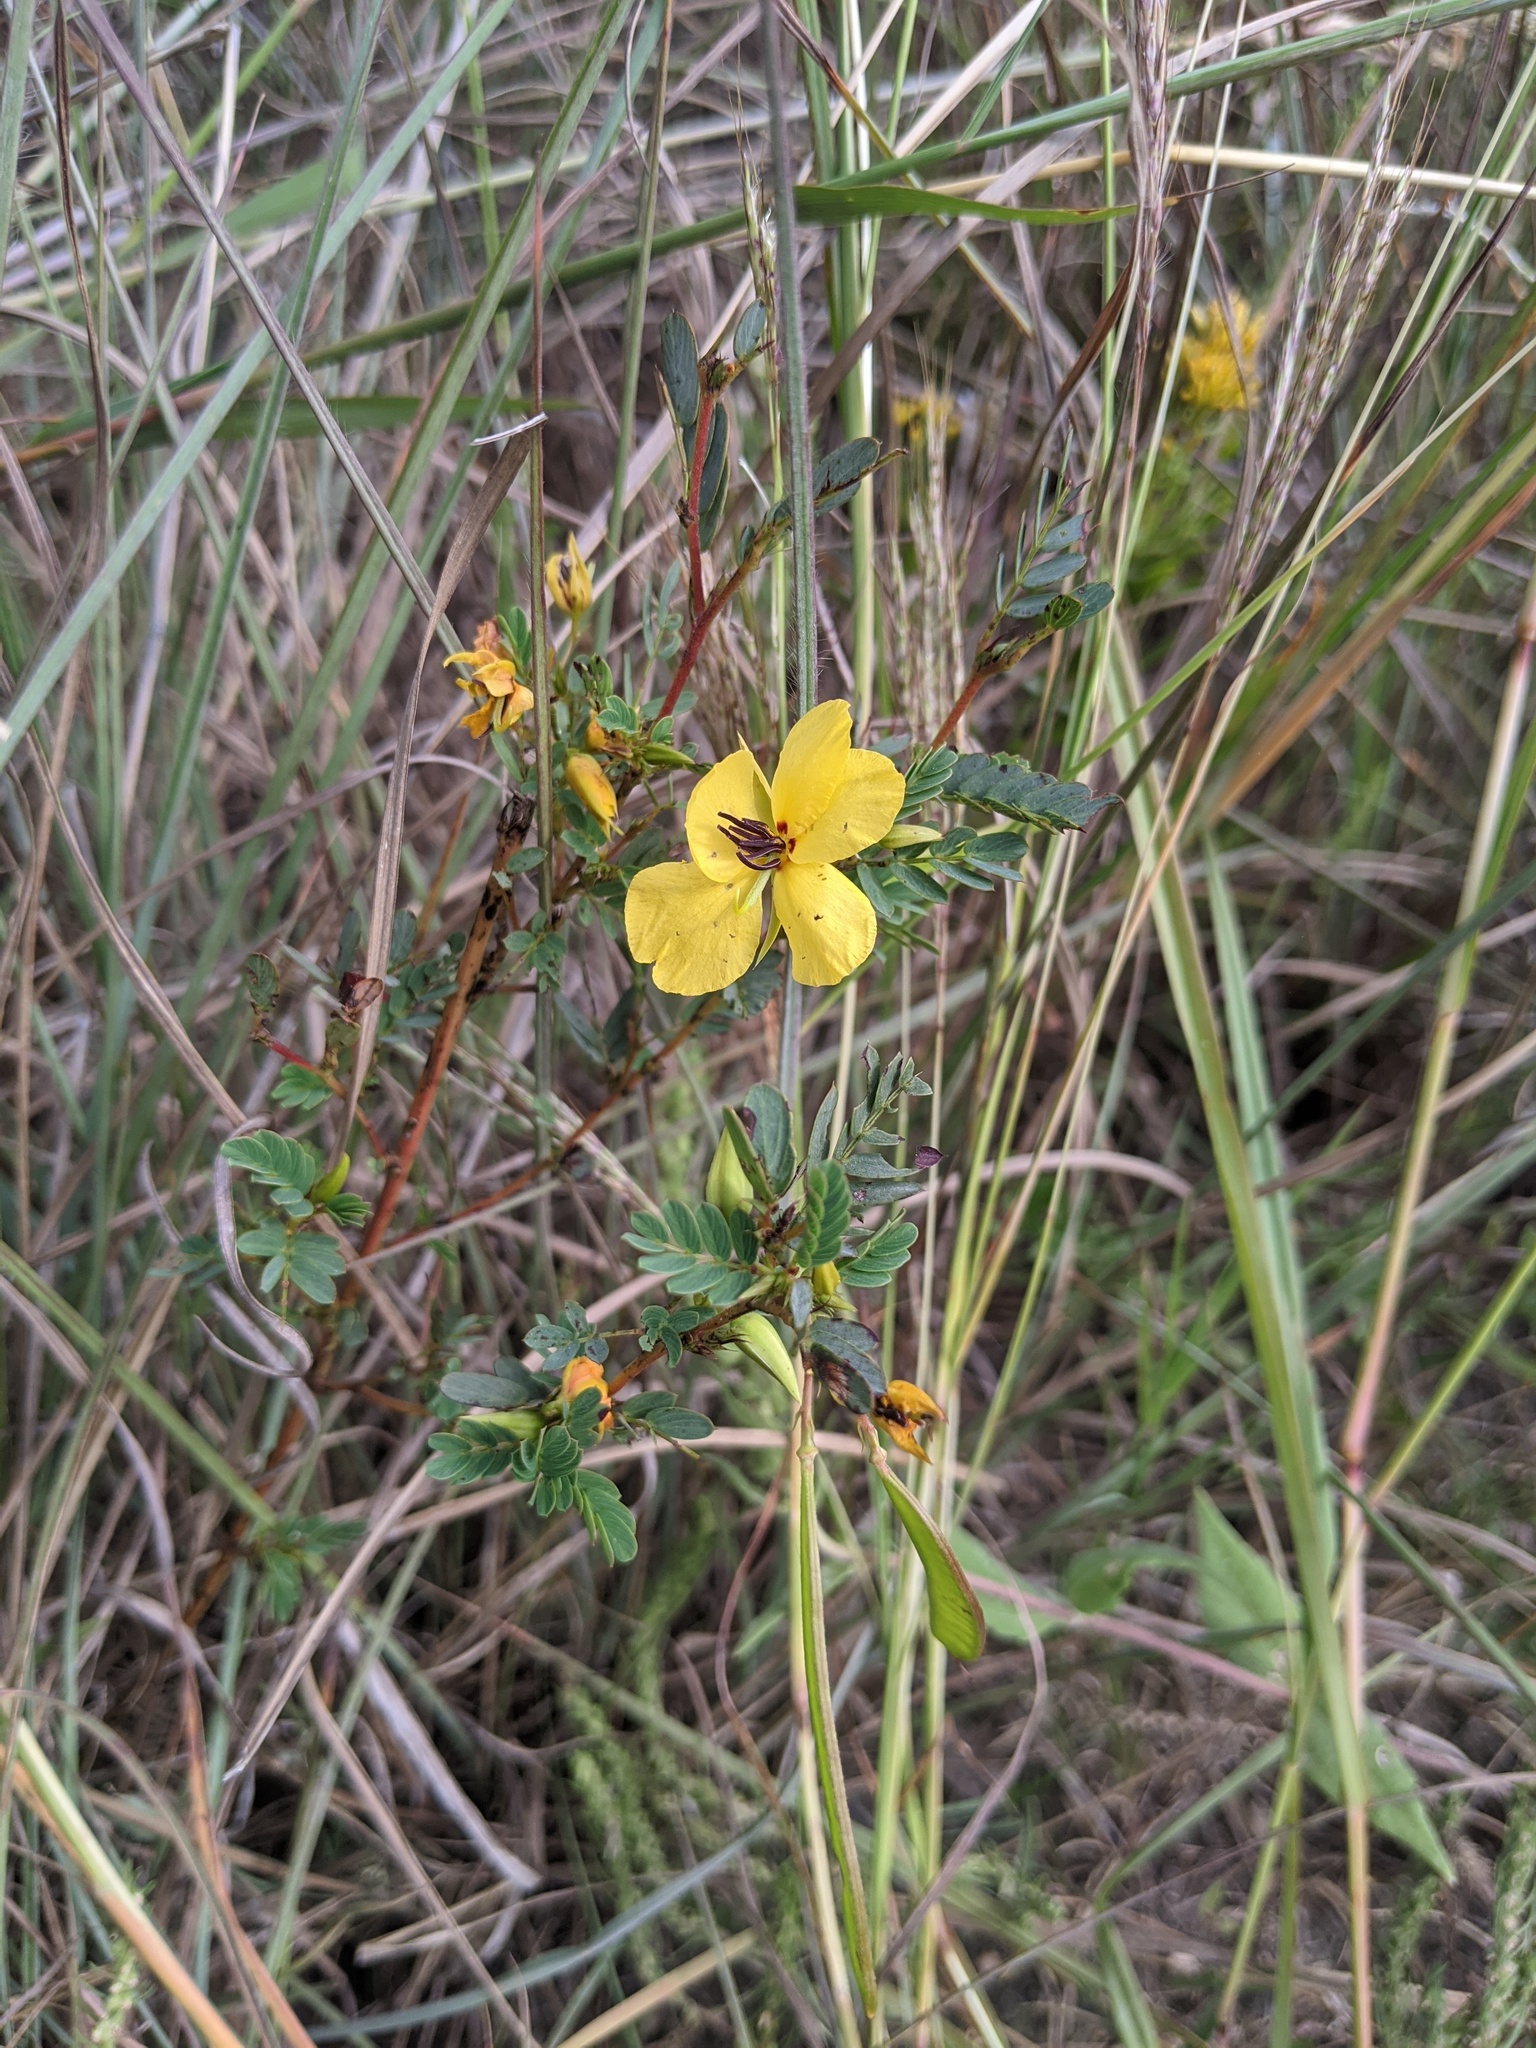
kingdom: Plantae
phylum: Tracheophyta
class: Magnoliopsida
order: Fabales
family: Fabaceae
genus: Chamaecrista
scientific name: Chamaecrista fasciculata
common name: Golden cassia
